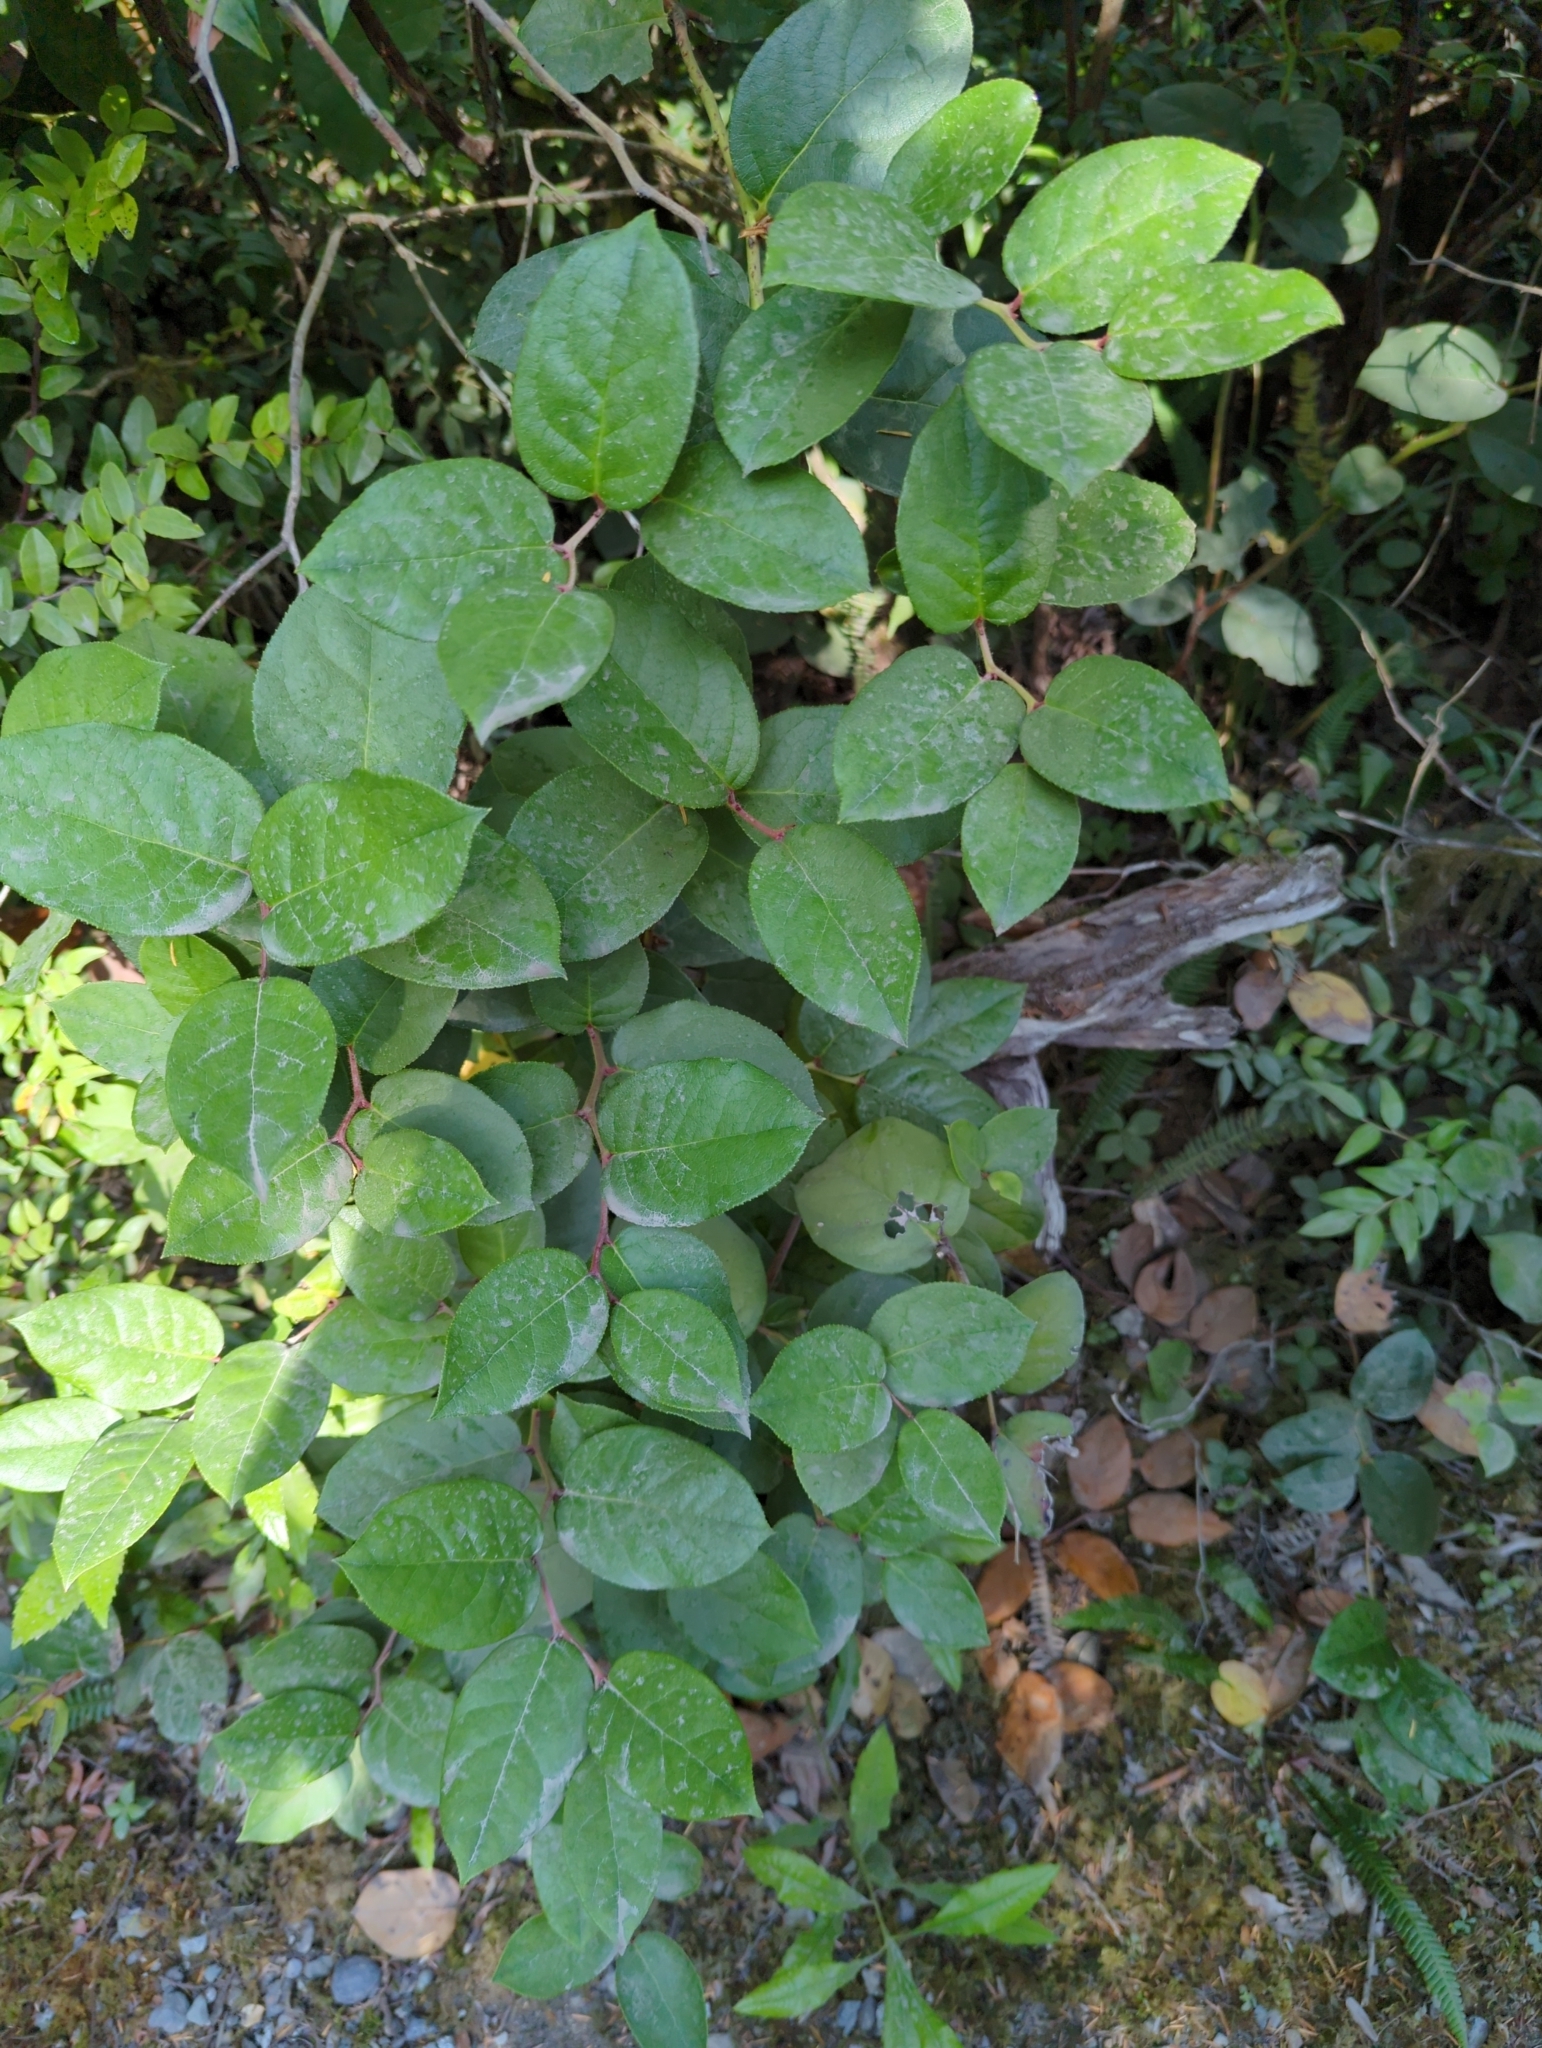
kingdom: Plantae
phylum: Tracheophyta
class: Magnoliopsida
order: Ericales
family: Ericaceae
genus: Gaultheria
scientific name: Gaultheria shallon
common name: Shallon
